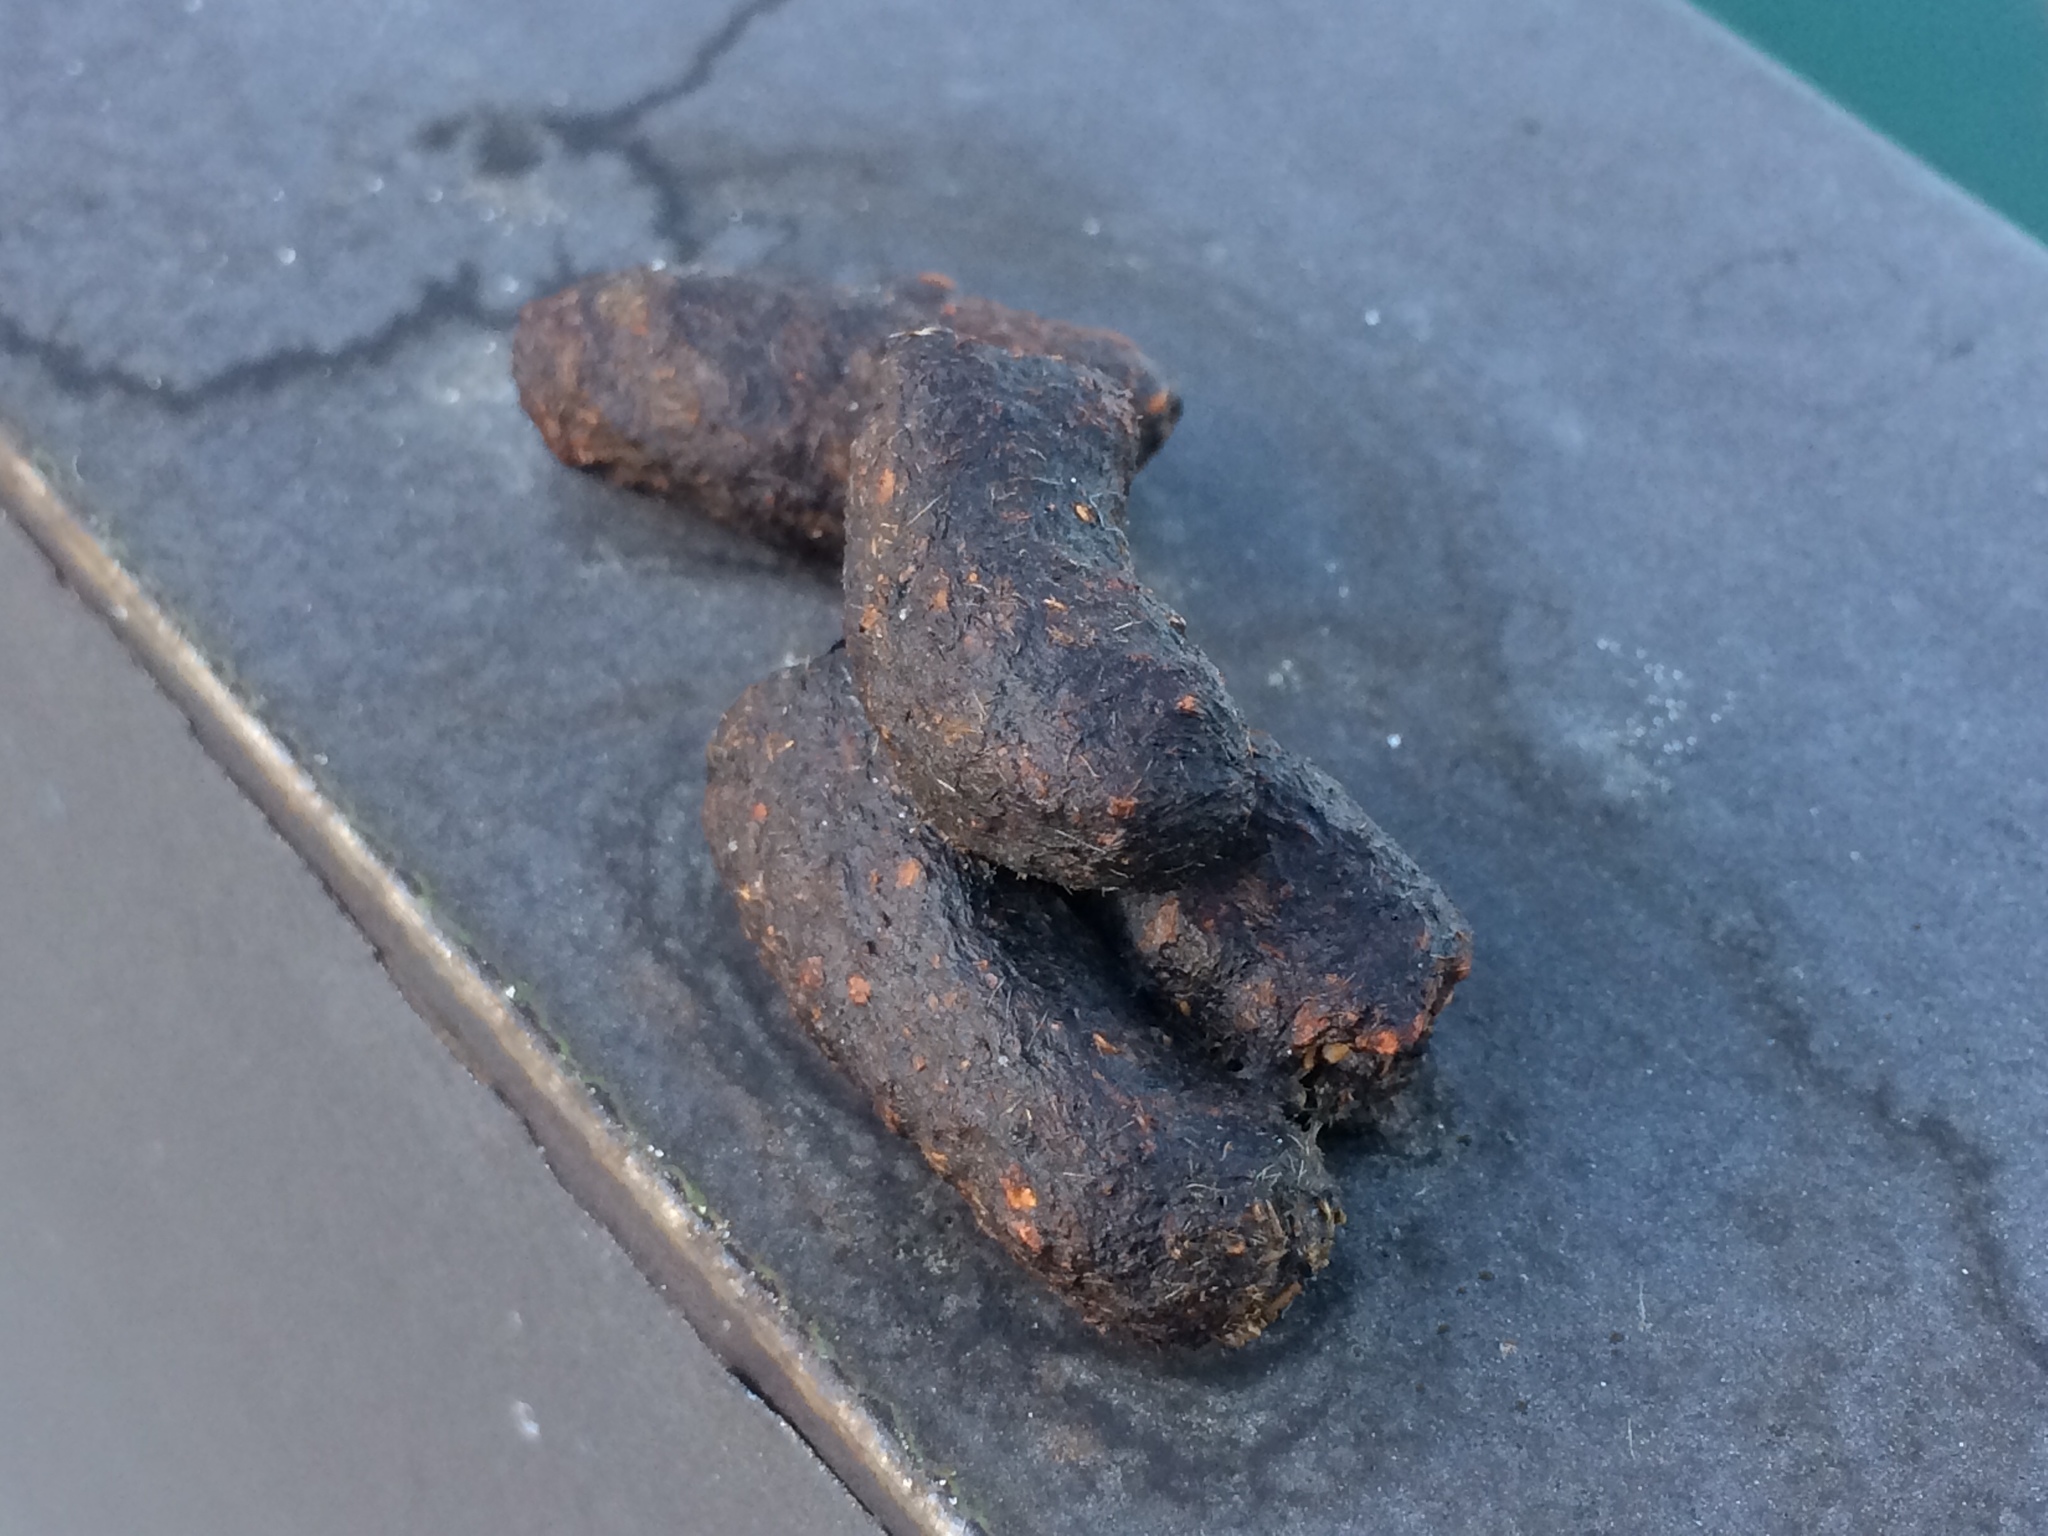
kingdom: Animalia
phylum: Chordata
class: Mammalia
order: Diprotodontia
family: Phalangeridae
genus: Trichosurus
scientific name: Trichosurus vulpecula
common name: Common brushtail
